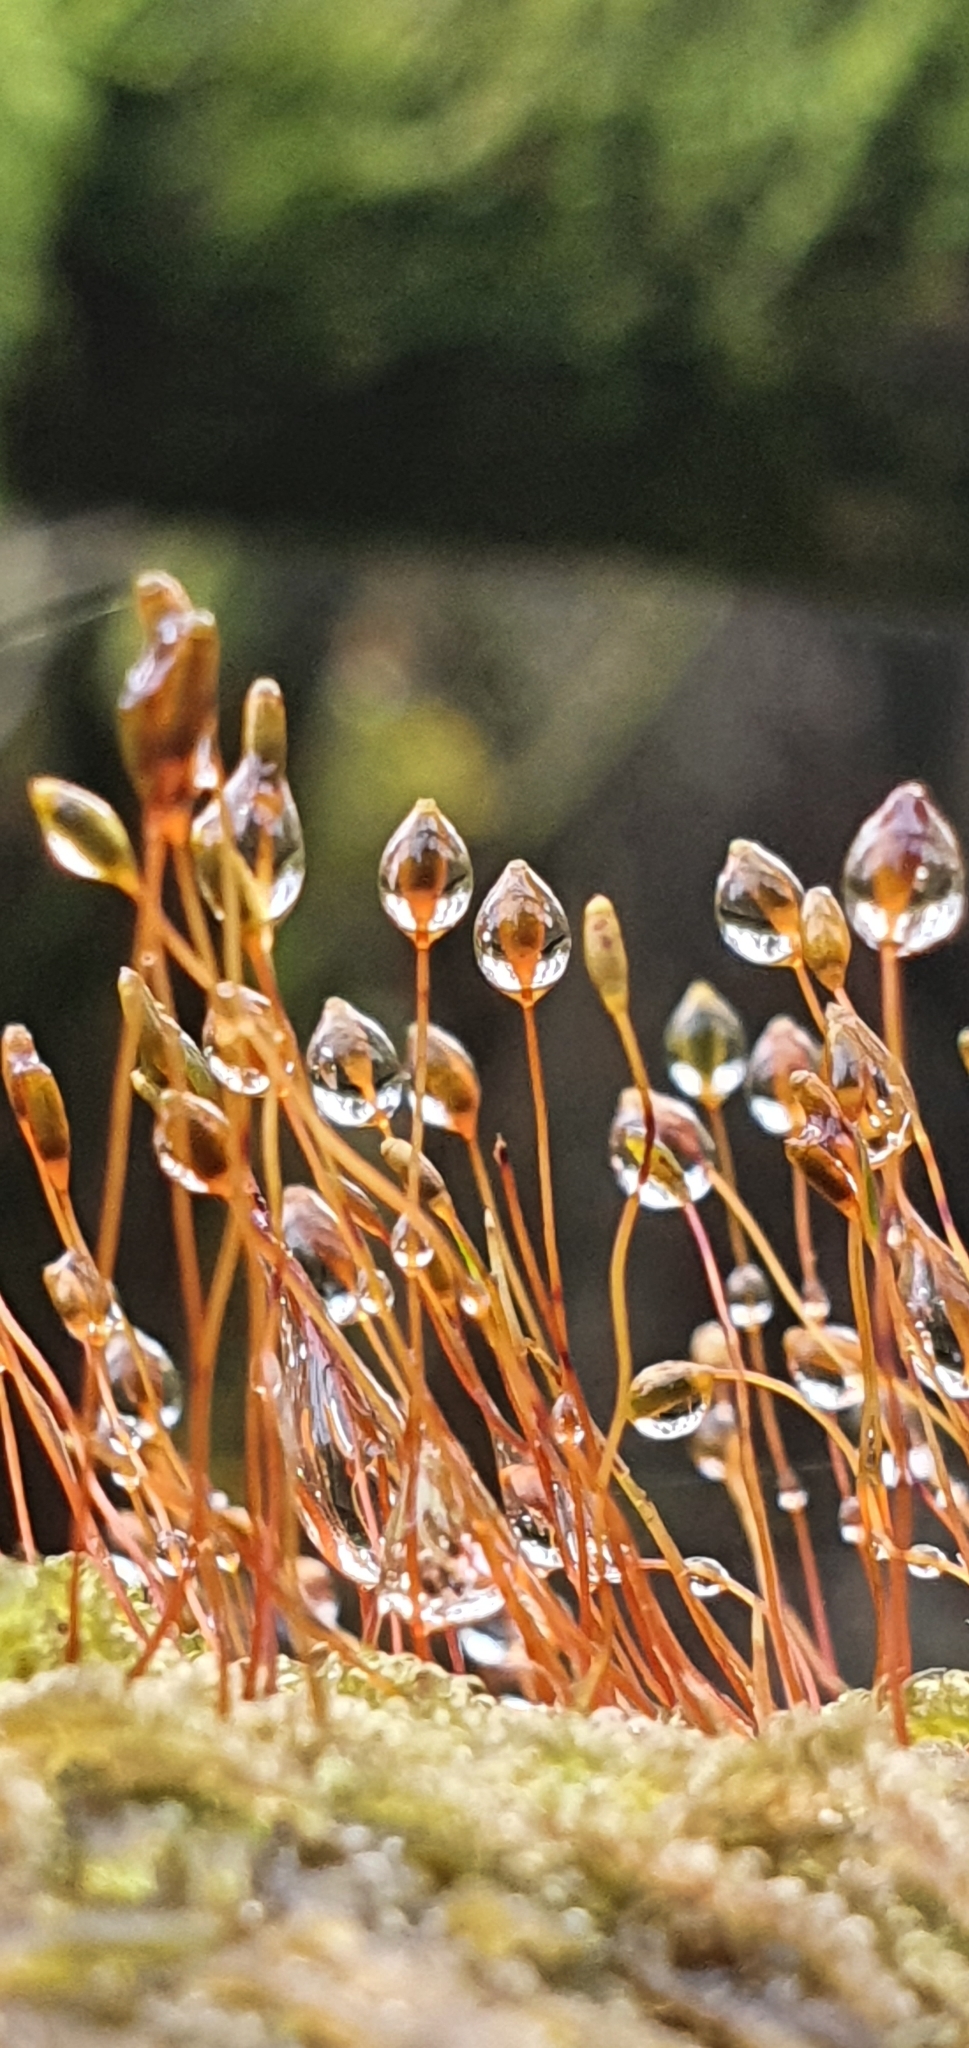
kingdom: Plantae
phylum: Bryophyta
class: Bryopsida
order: Hypnales
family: Hypnaceae
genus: Hypnum
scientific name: Hypnum andoi
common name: Ando's plait moss
